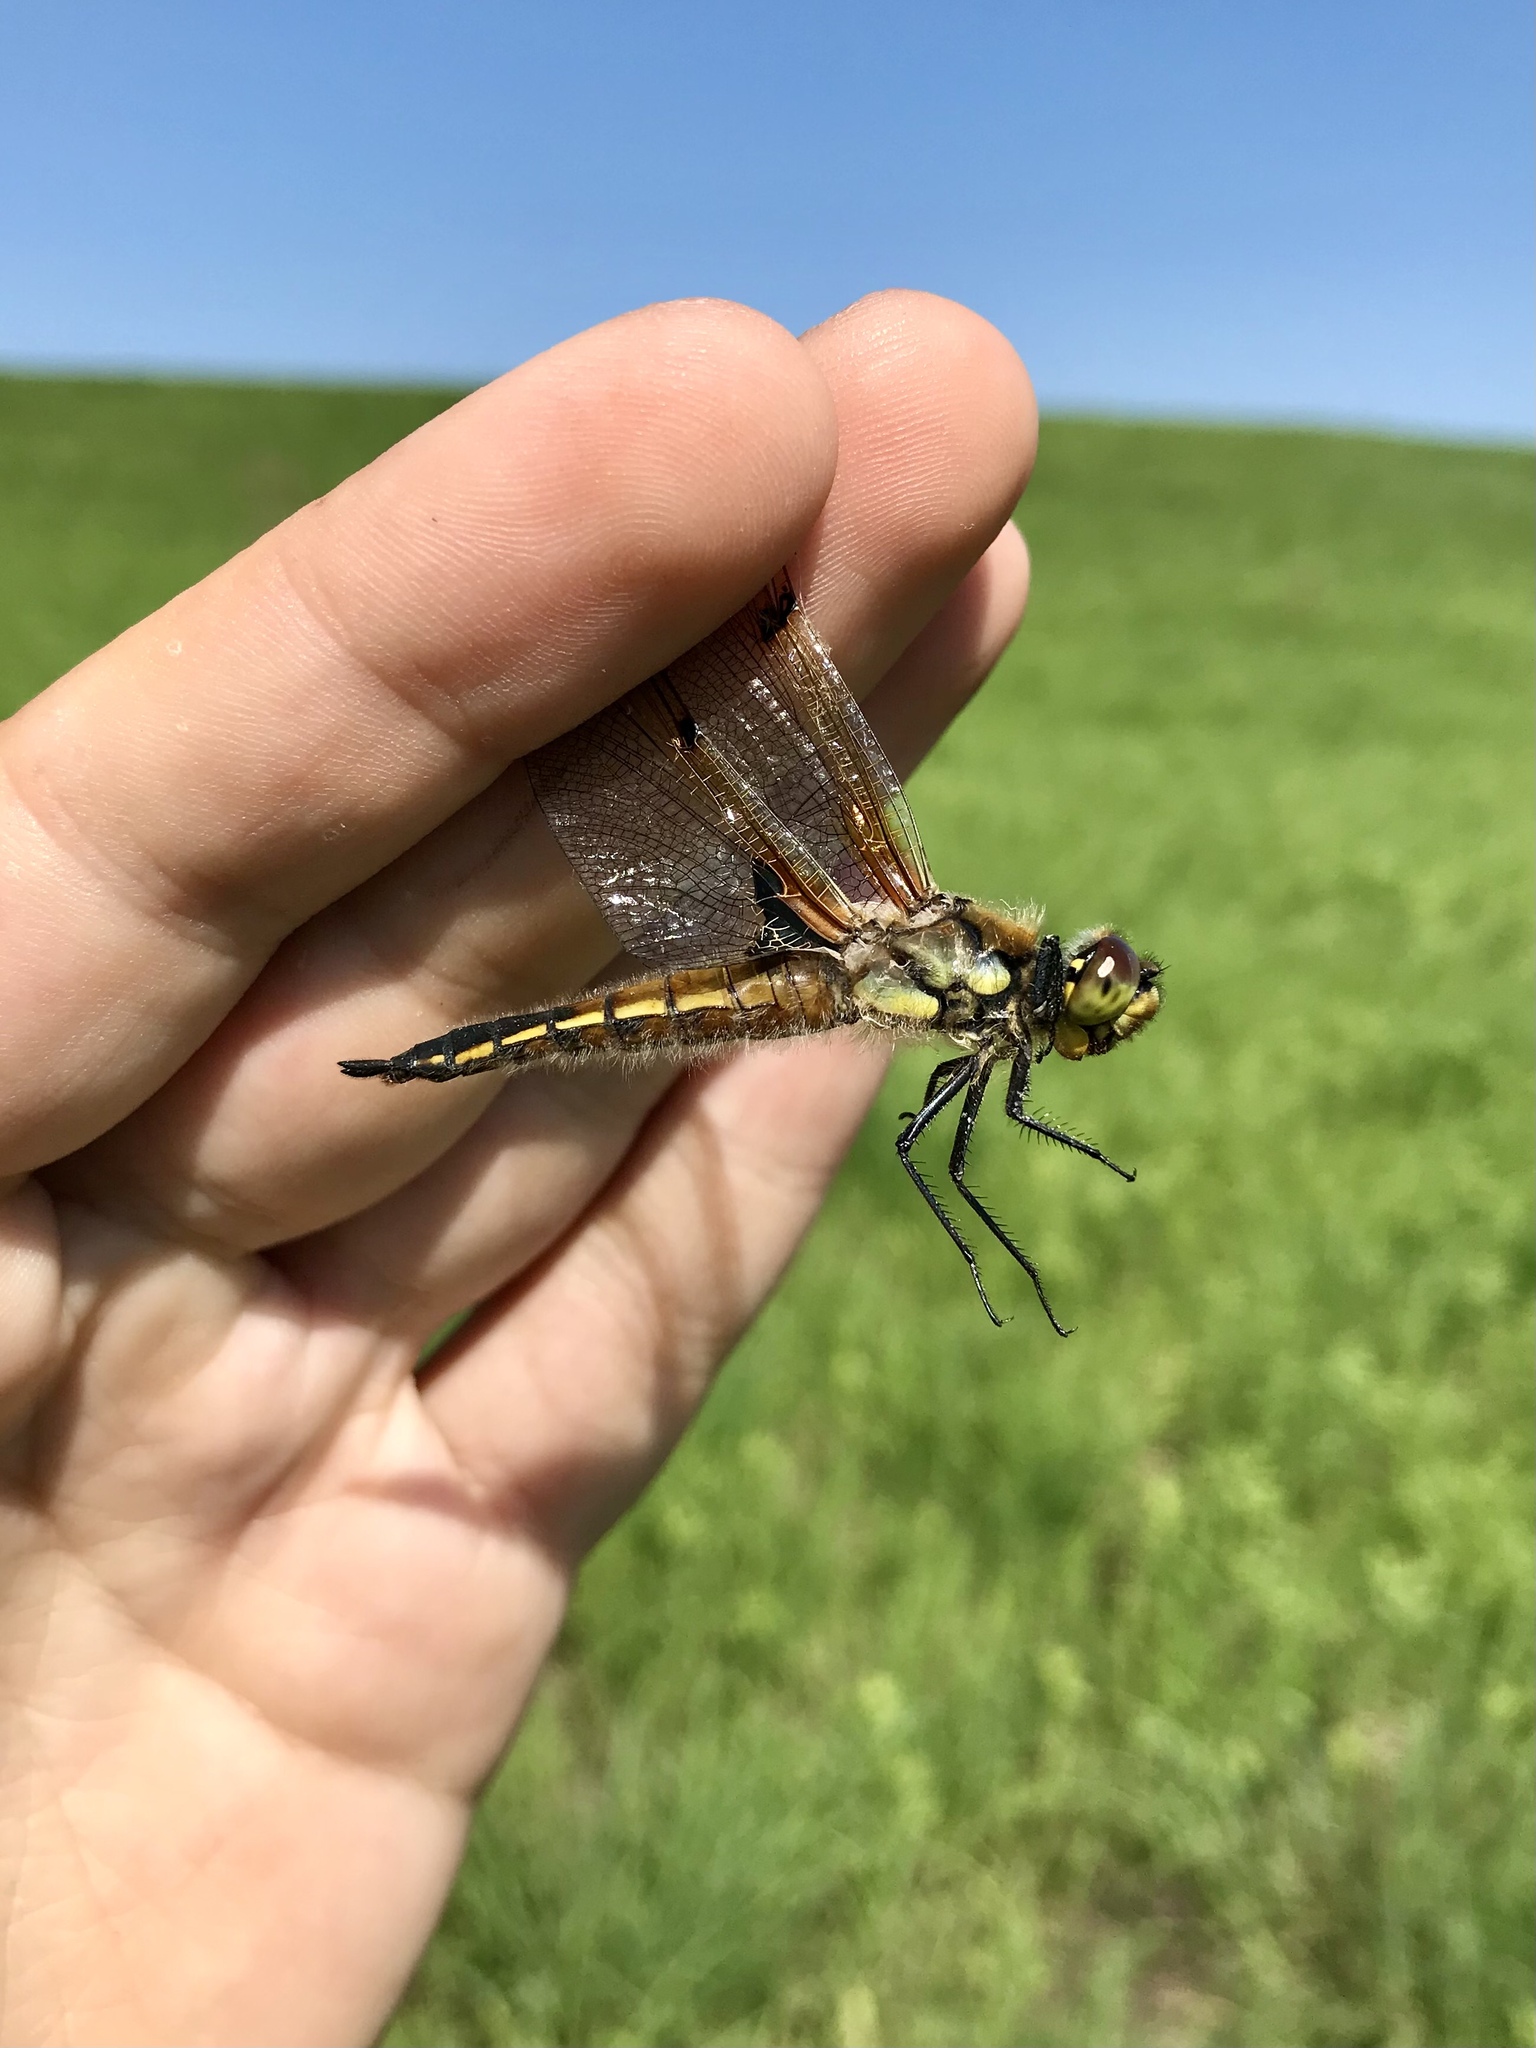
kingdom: Animalia
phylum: Arthropoda
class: Insecta
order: Odonata
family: Libellulidae
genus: Libellula
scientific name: Libellula quadrimaculata
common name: Four-spotted chaser
